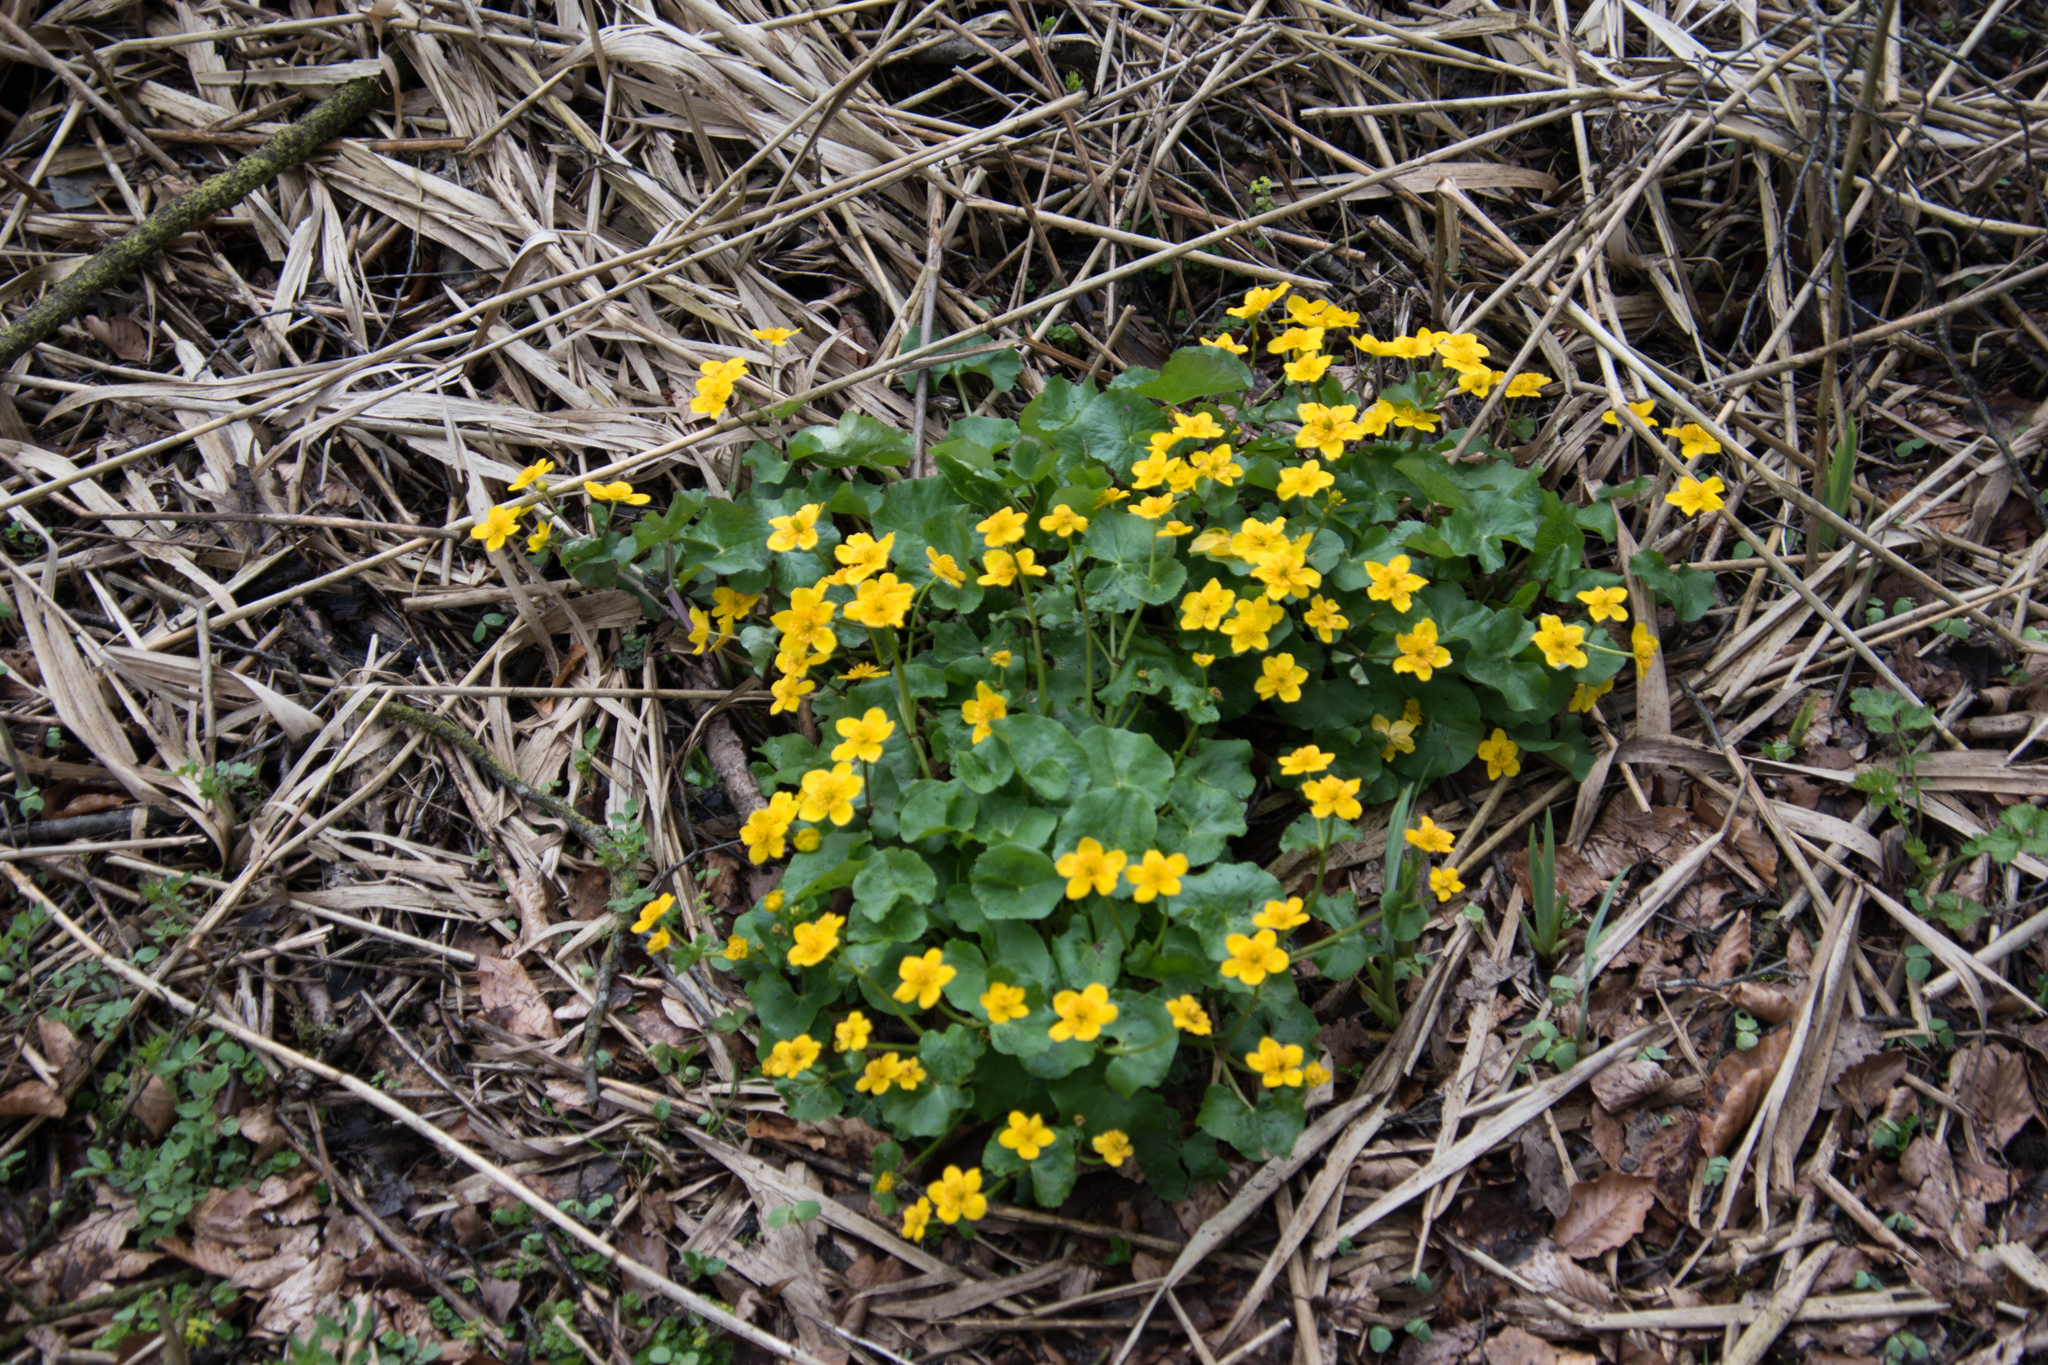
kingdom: Plantae
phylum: Tracheophyta
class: Magnoliopsida
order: Ranunculales
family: Ranunculaceae
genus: Caltha
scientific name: Caltha palustris
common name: Marsh marigold
